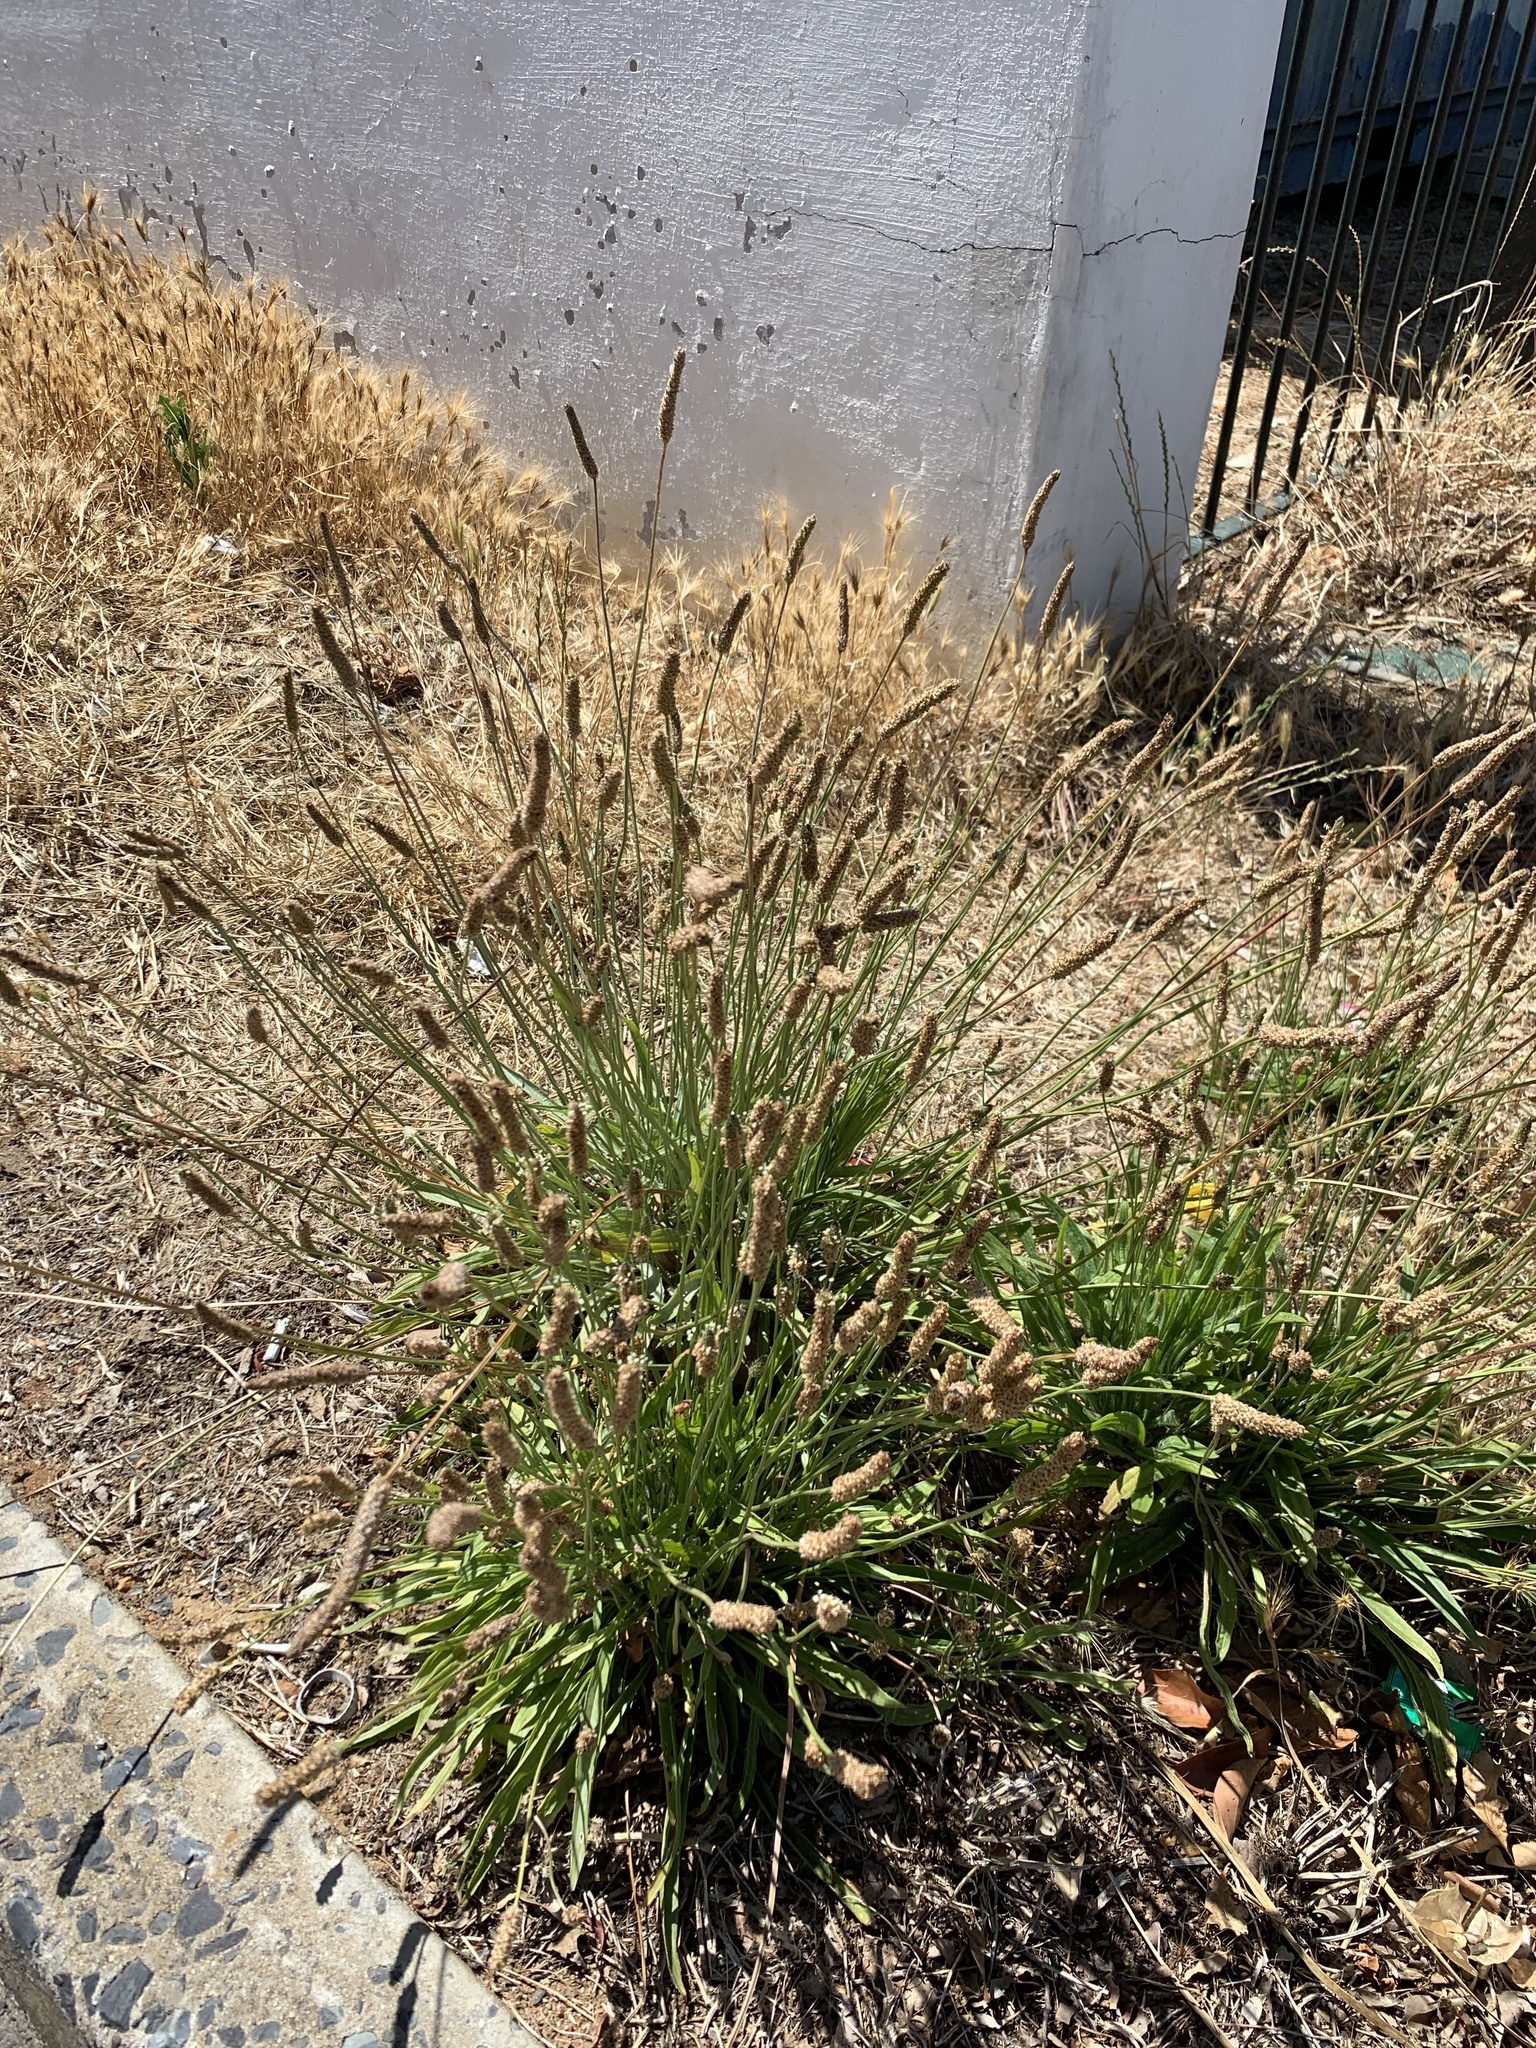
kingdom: Plantae
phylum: Tracheophyta
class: Magnoliopsida
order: Lamiales
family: Plantaginaceae
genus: Plantago
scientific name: Plantago lanceolata
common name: Ribwort plantain
